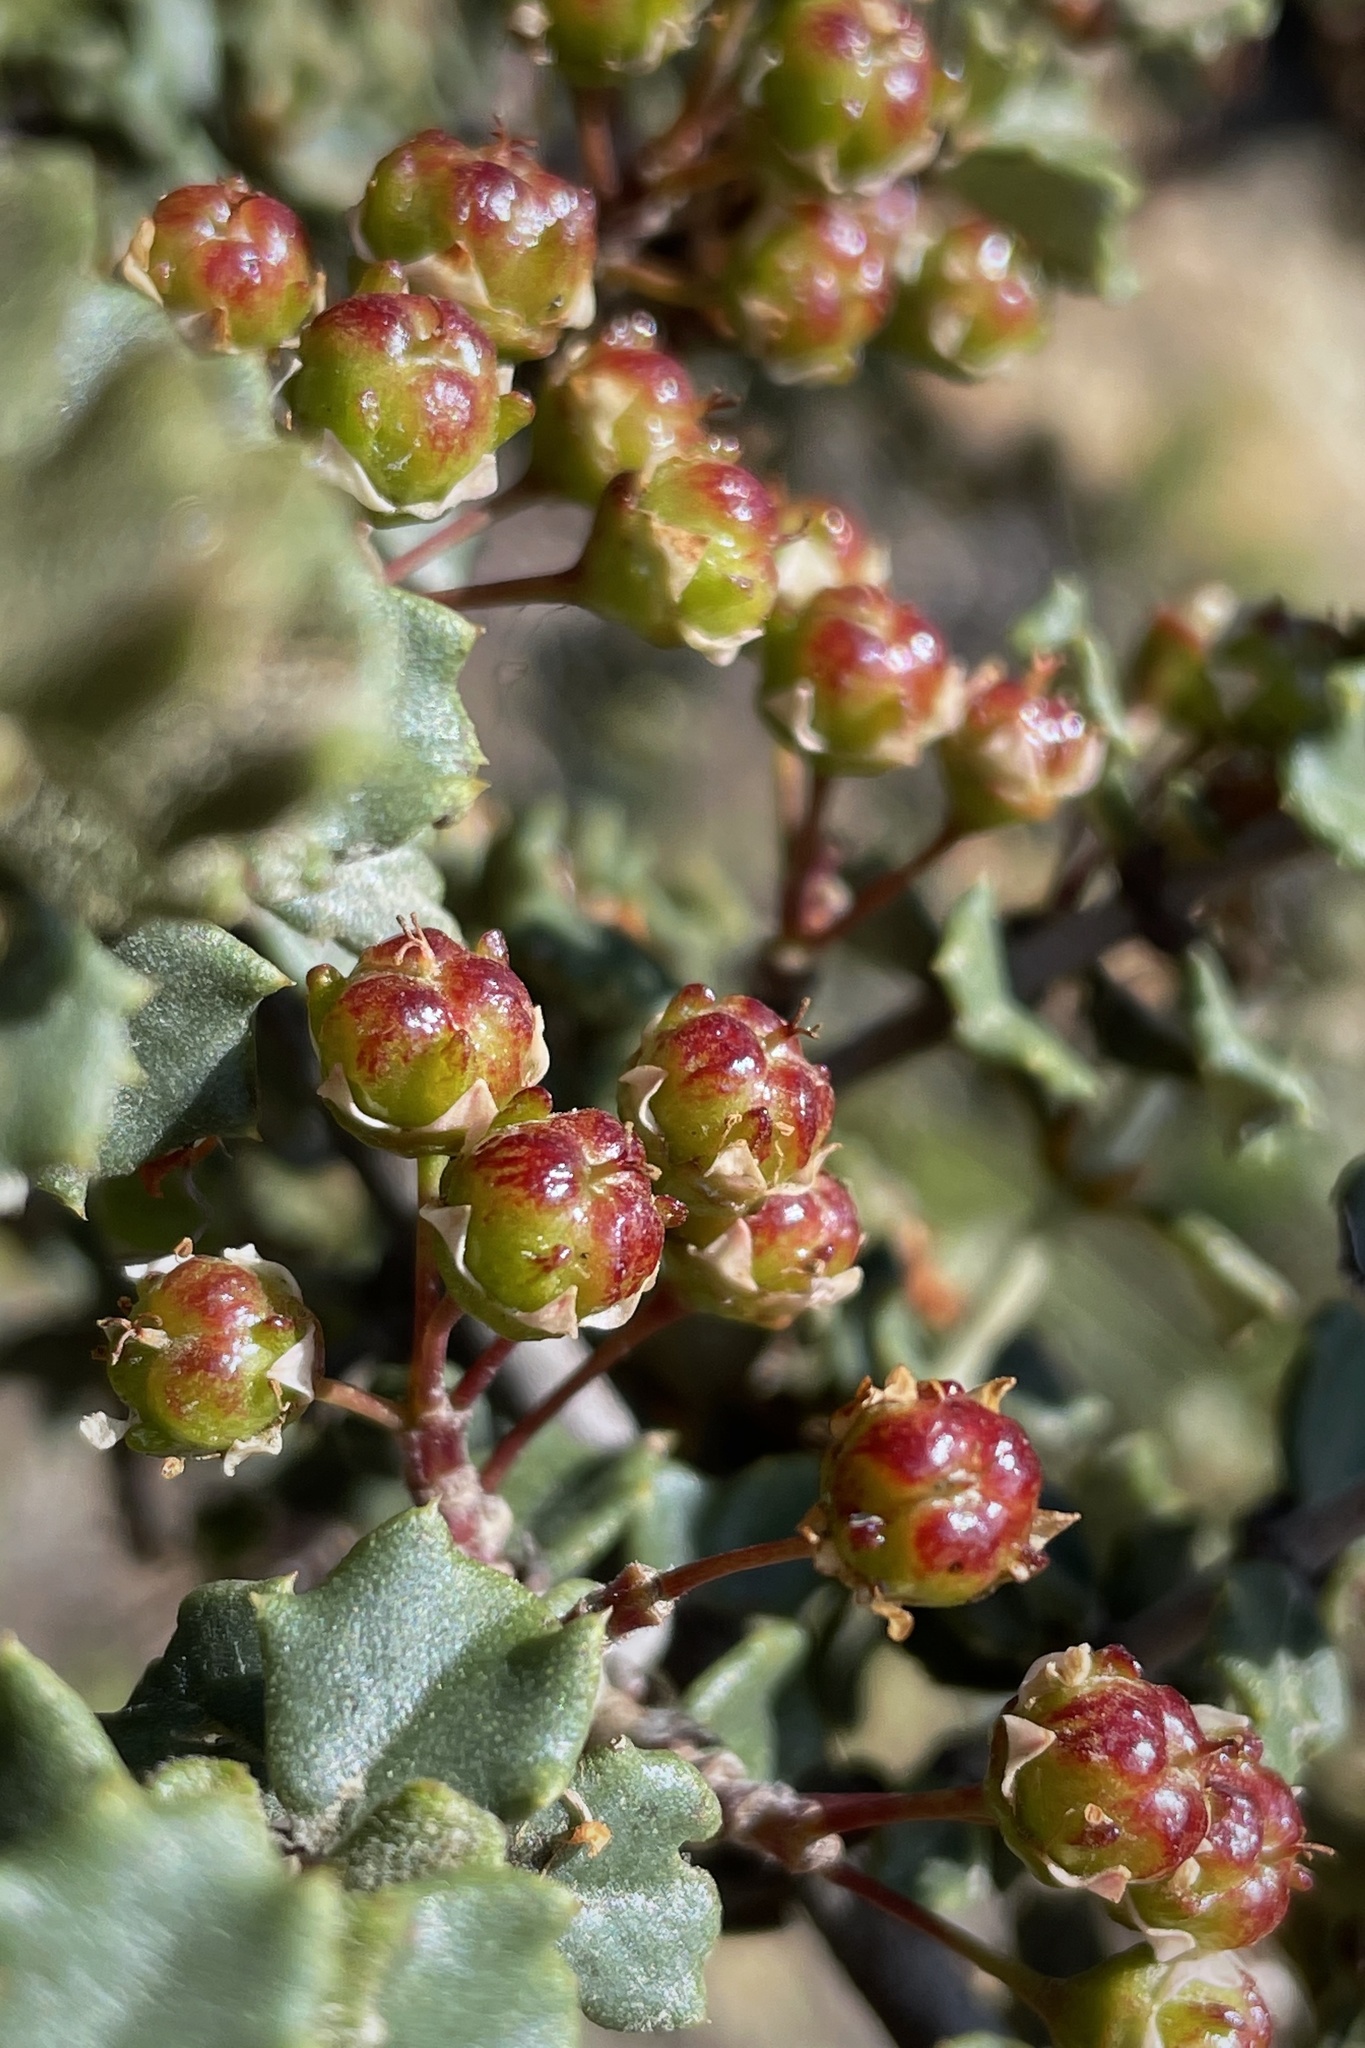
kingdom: Plantae
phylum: Tracheophyta
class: Magnoliopsida
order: Rosales
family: Rhamnaceae
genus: Ceanothus
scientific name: Ceanothus otayensis
